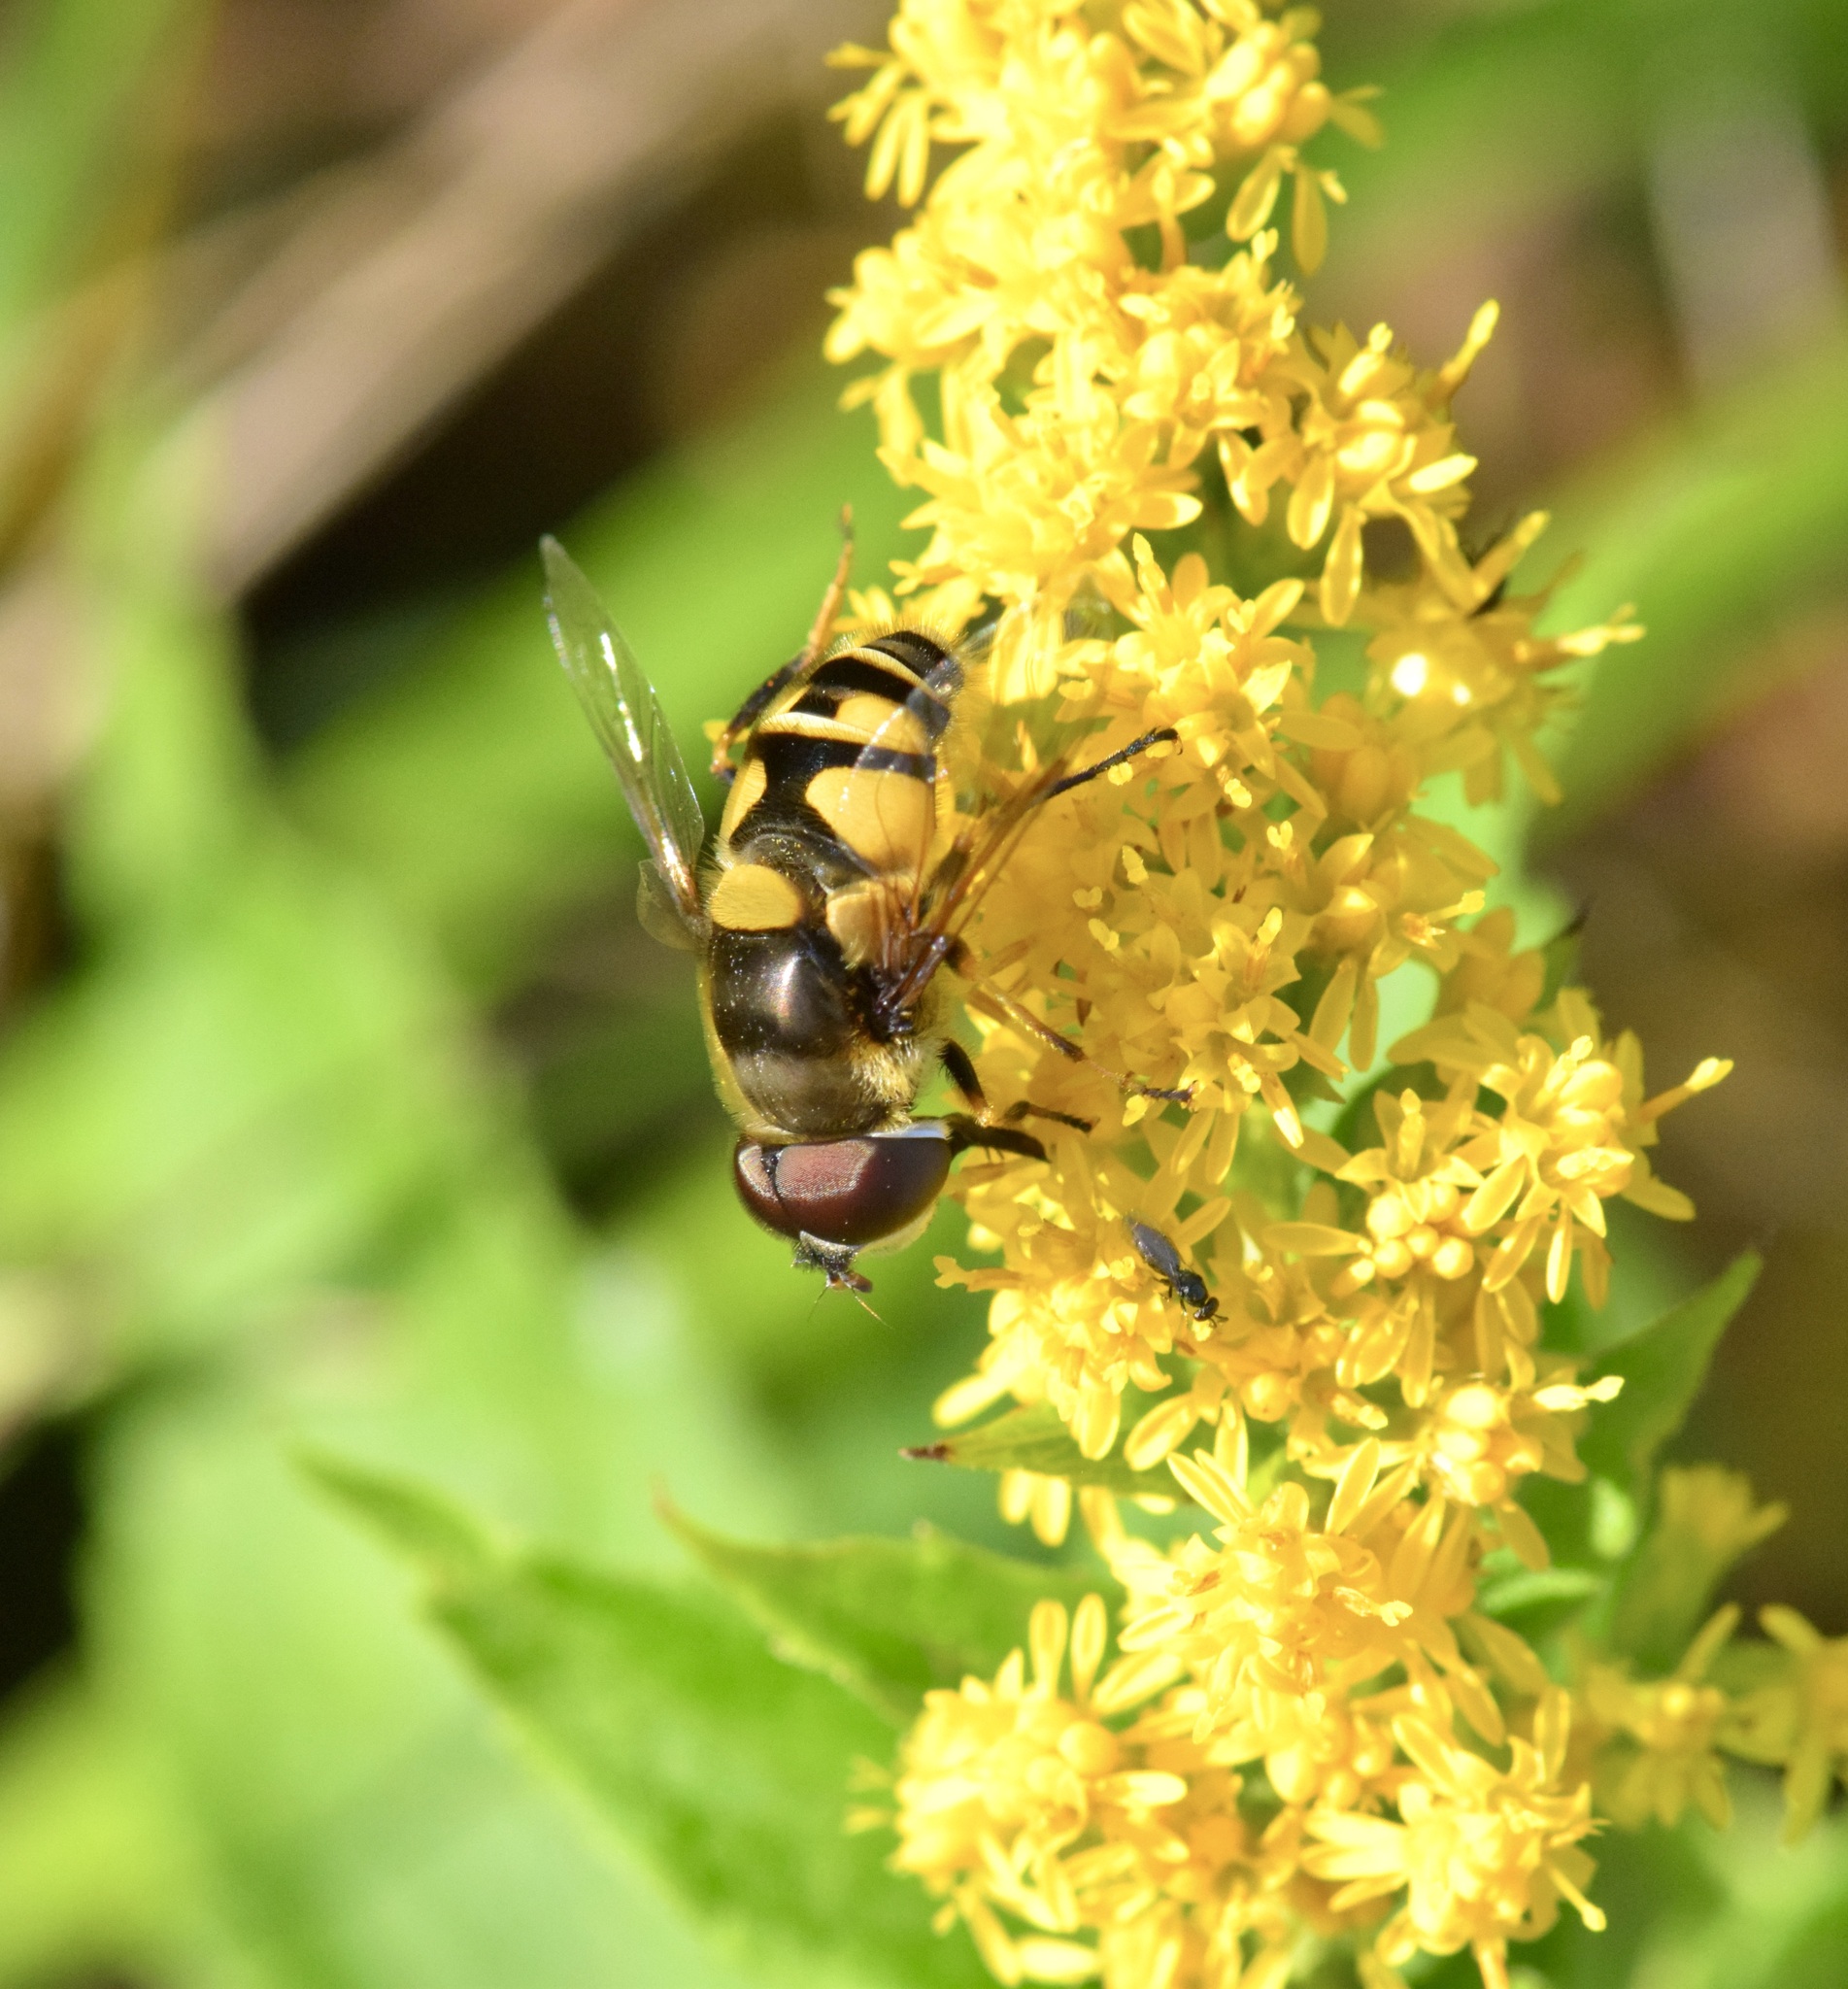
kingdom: Animalia
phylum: Arthropoda
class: Insecta
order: Diptera
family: Syrphidae
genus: Eristalis
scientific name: Eristalis transversa
